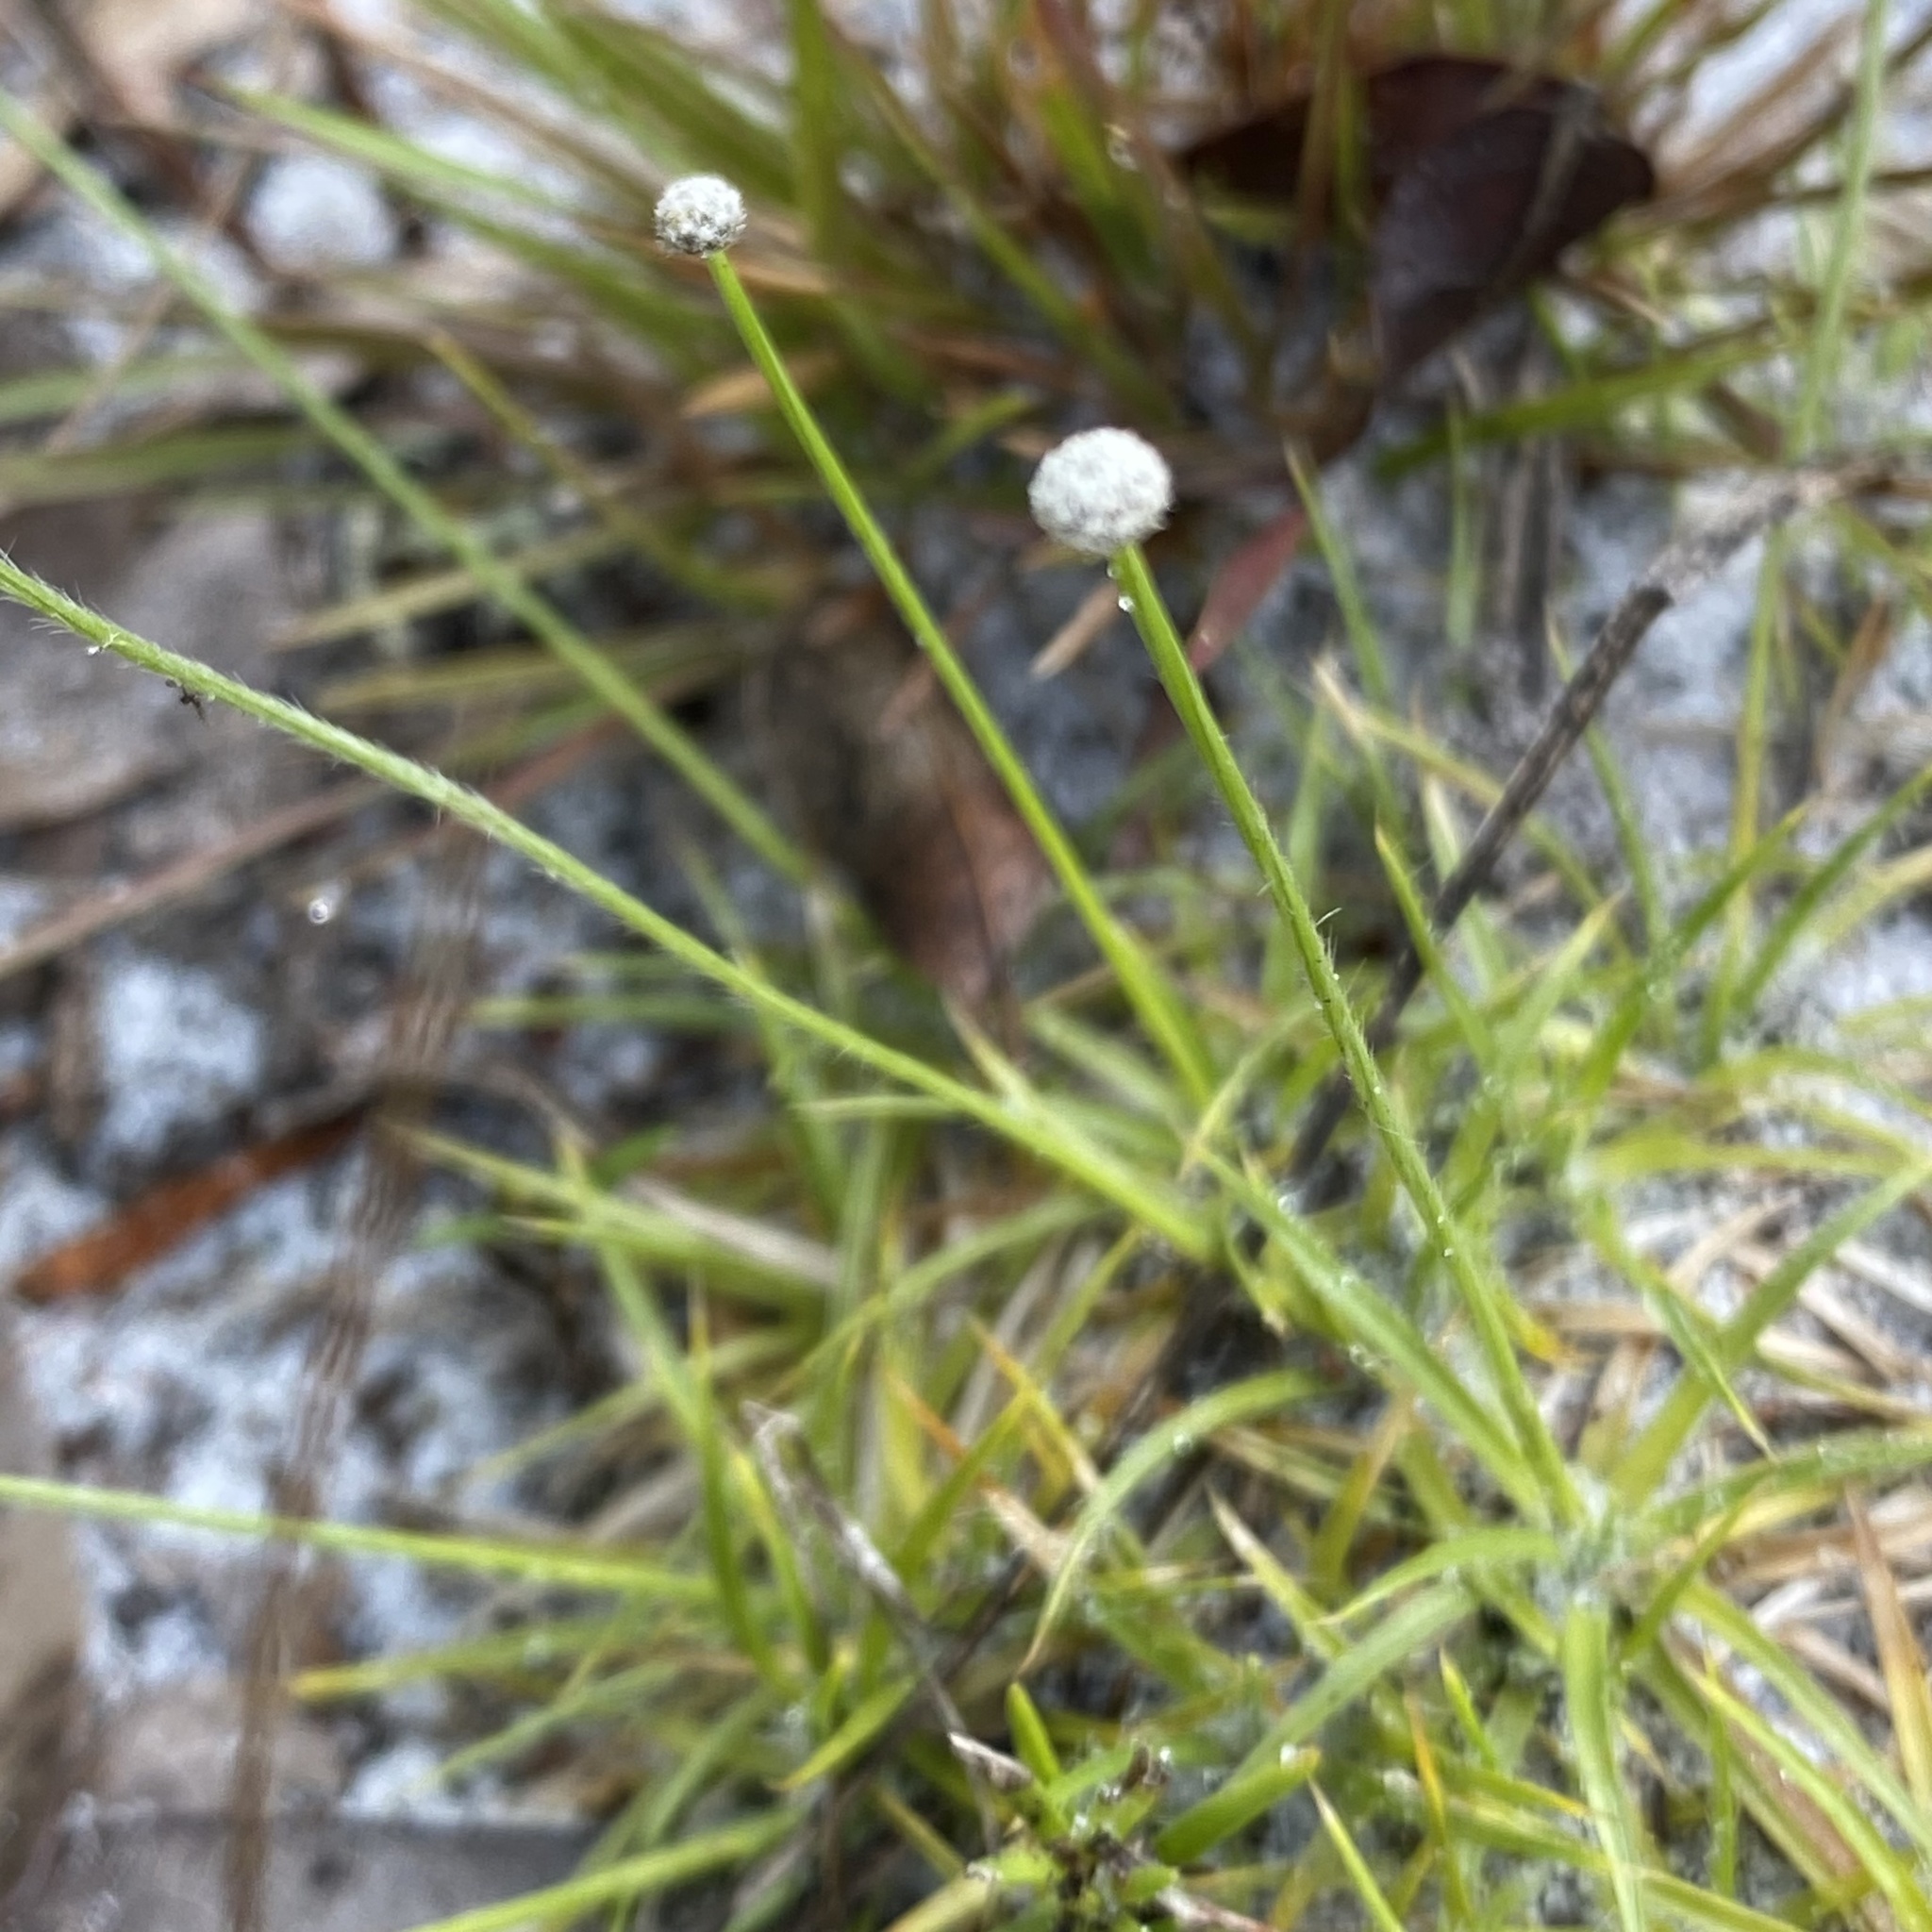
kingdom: Plantae
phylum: Tracheophyta
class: Liliopsida
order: Poales
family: Eriocaulaceae
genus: Paepalanthus
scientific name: Paepalanthus beyrichianus
